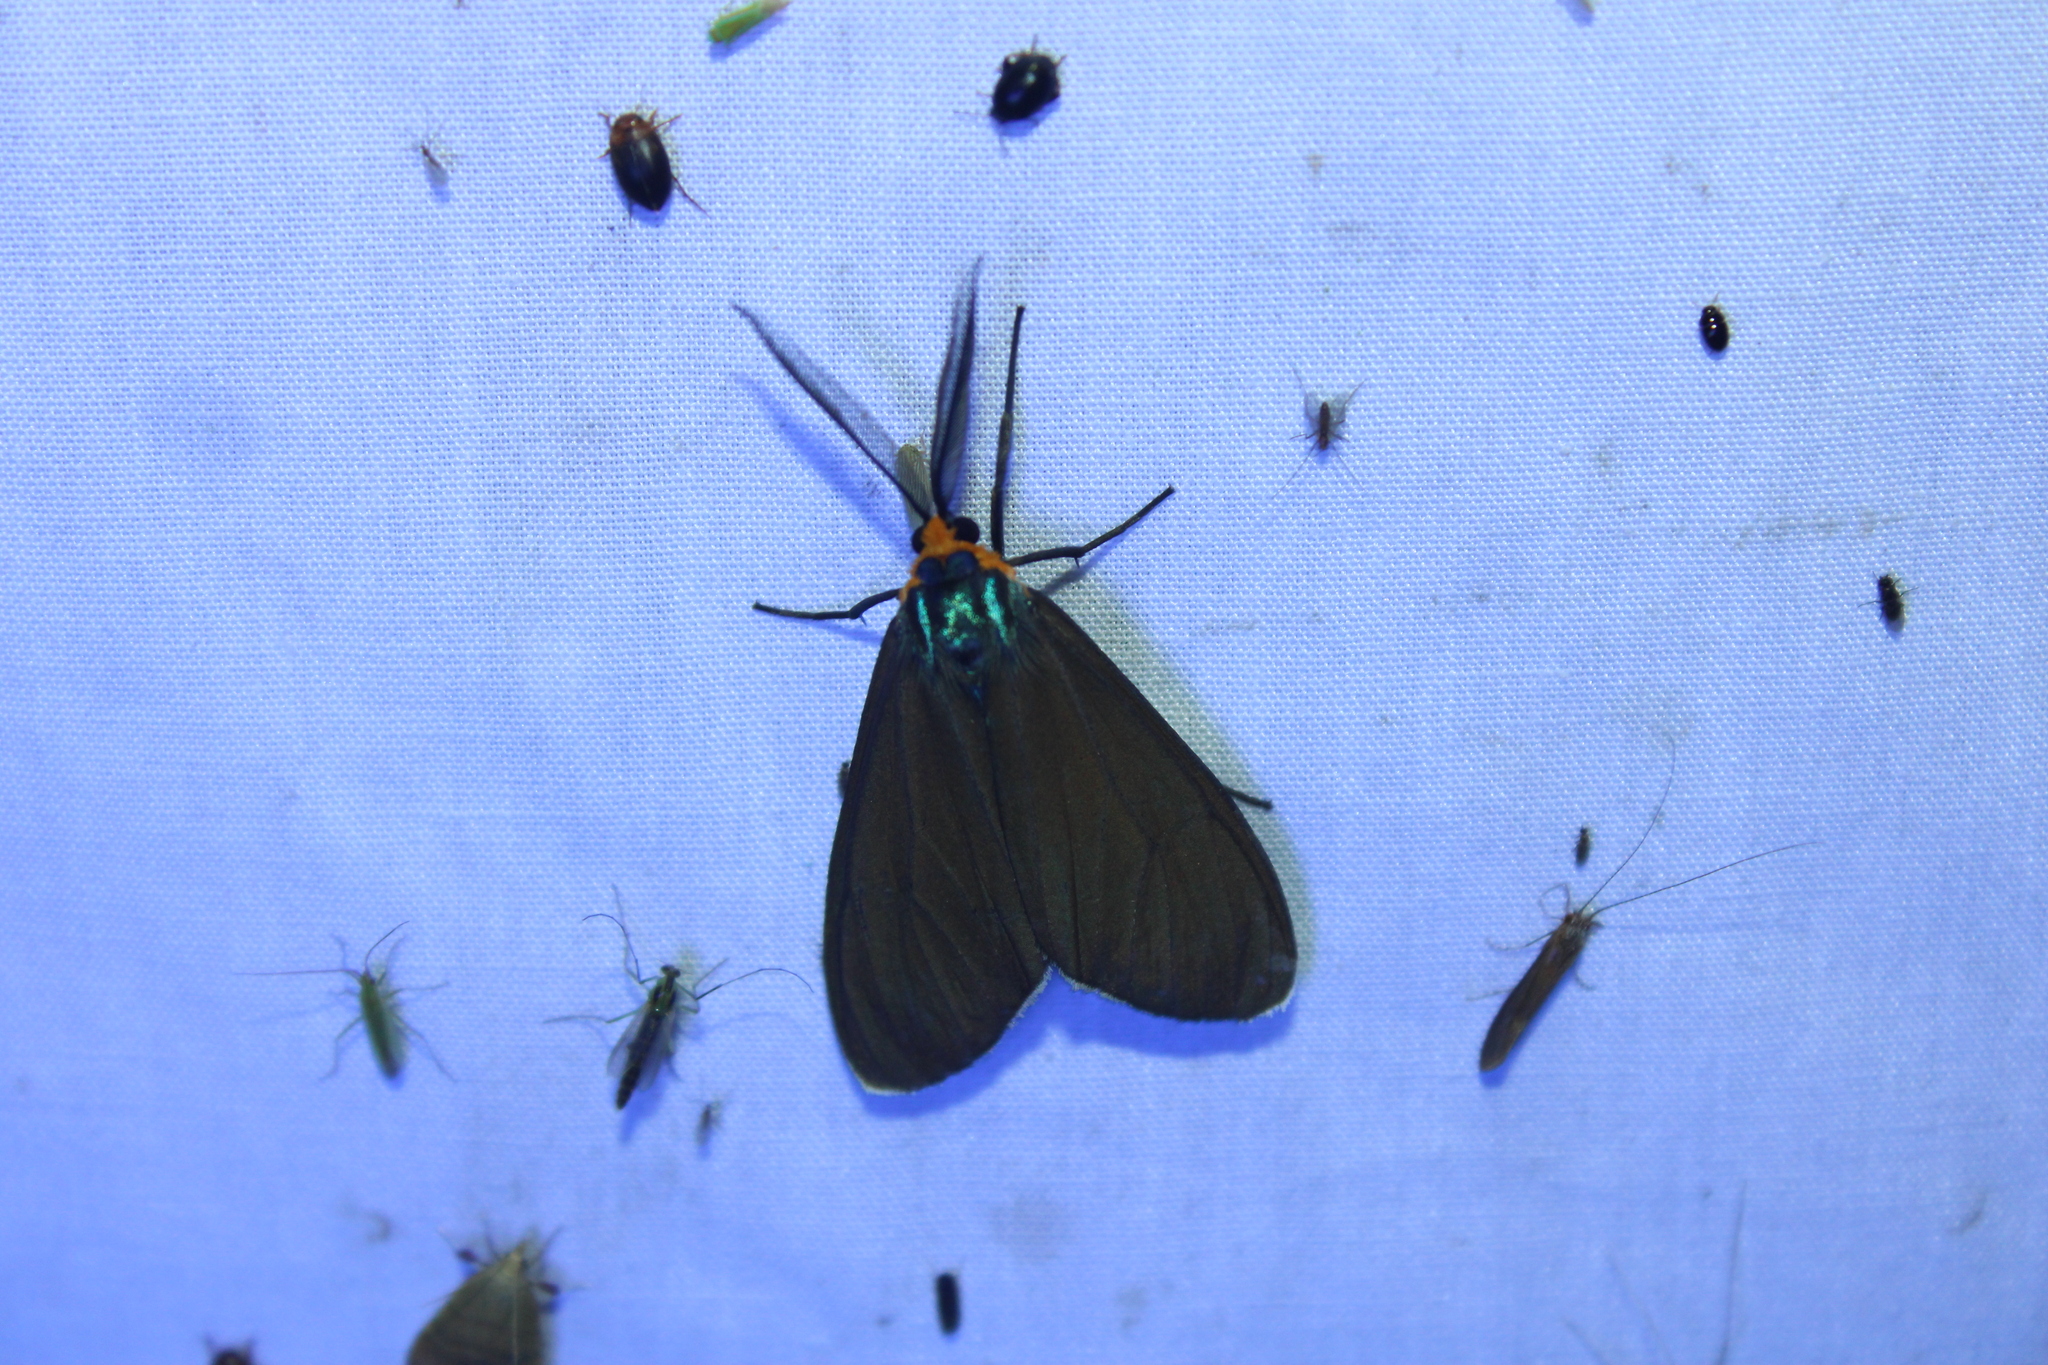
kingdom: Animalia
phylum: Arthropoda
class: Insecta
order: Lepidoptera
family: Erebidae
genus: Ctenucha
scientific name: Ctenucha virginica
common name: Virginia ctenucha moth
